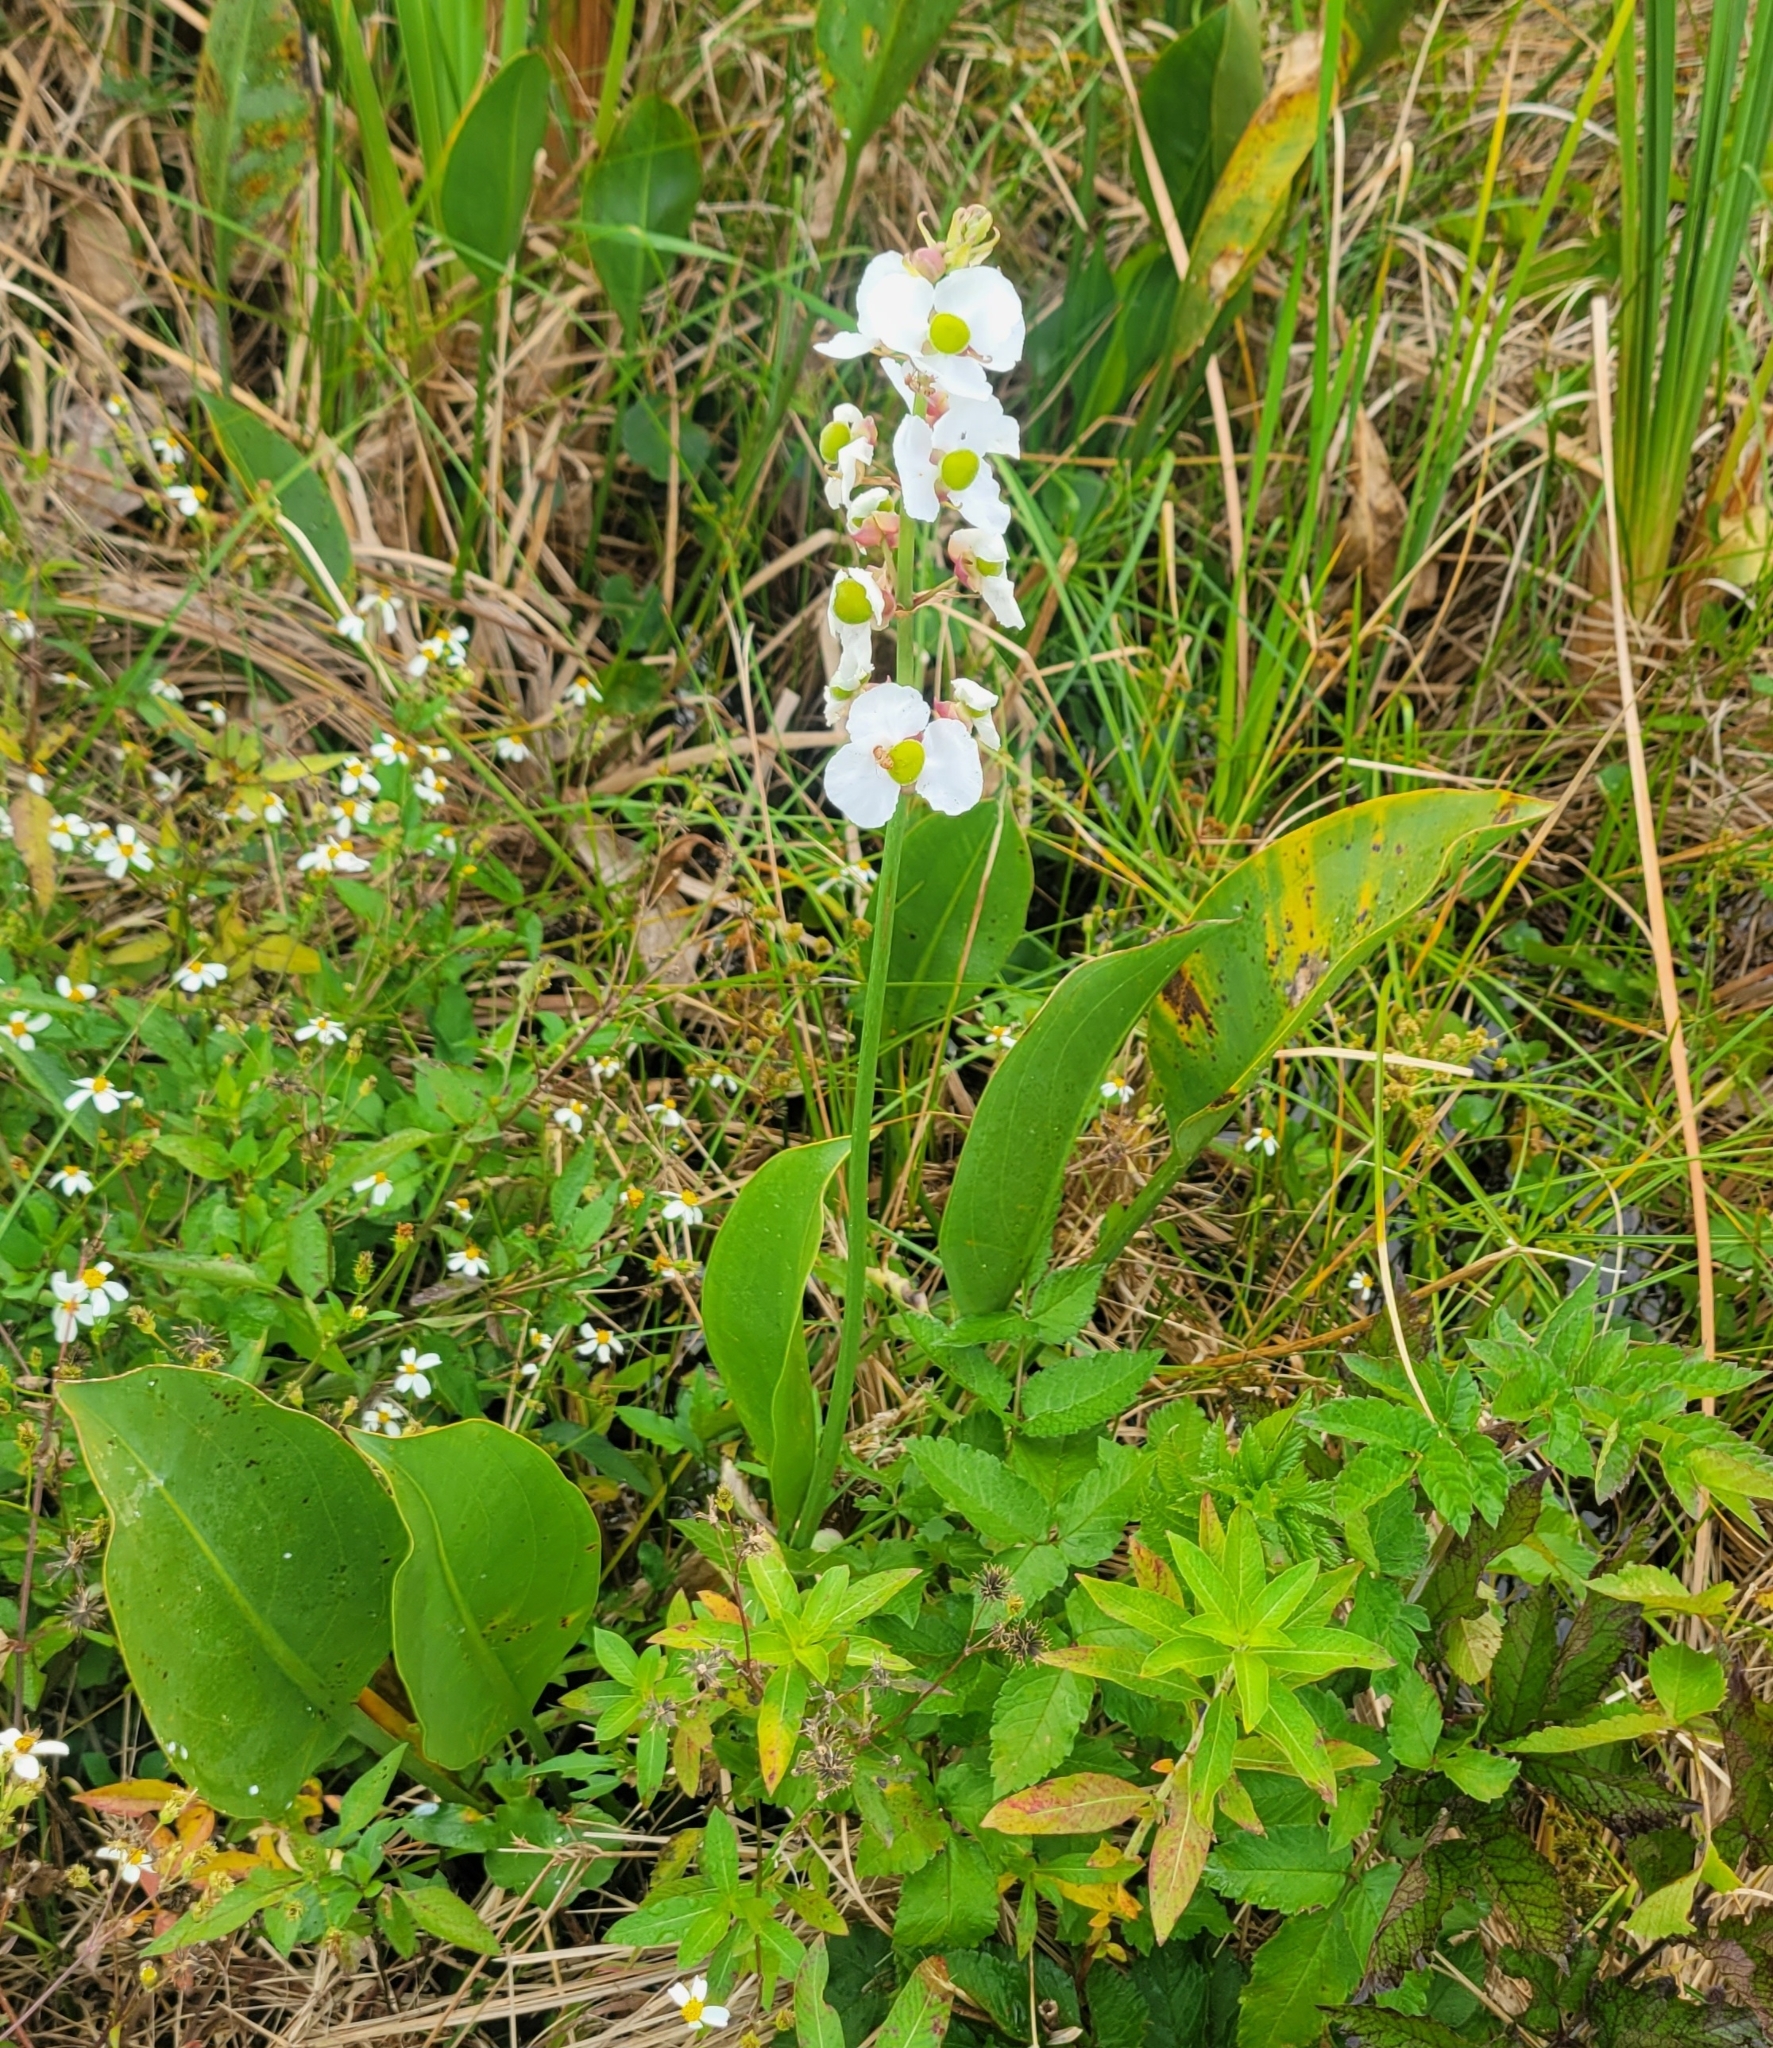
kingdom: Plantae
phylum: Tracheophyta
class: Liliopsida
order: Alismatales
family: Alismataceae
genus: Sagittaria
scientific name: Sagittaria lancifolia
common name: Lance-leaf arrowhead
